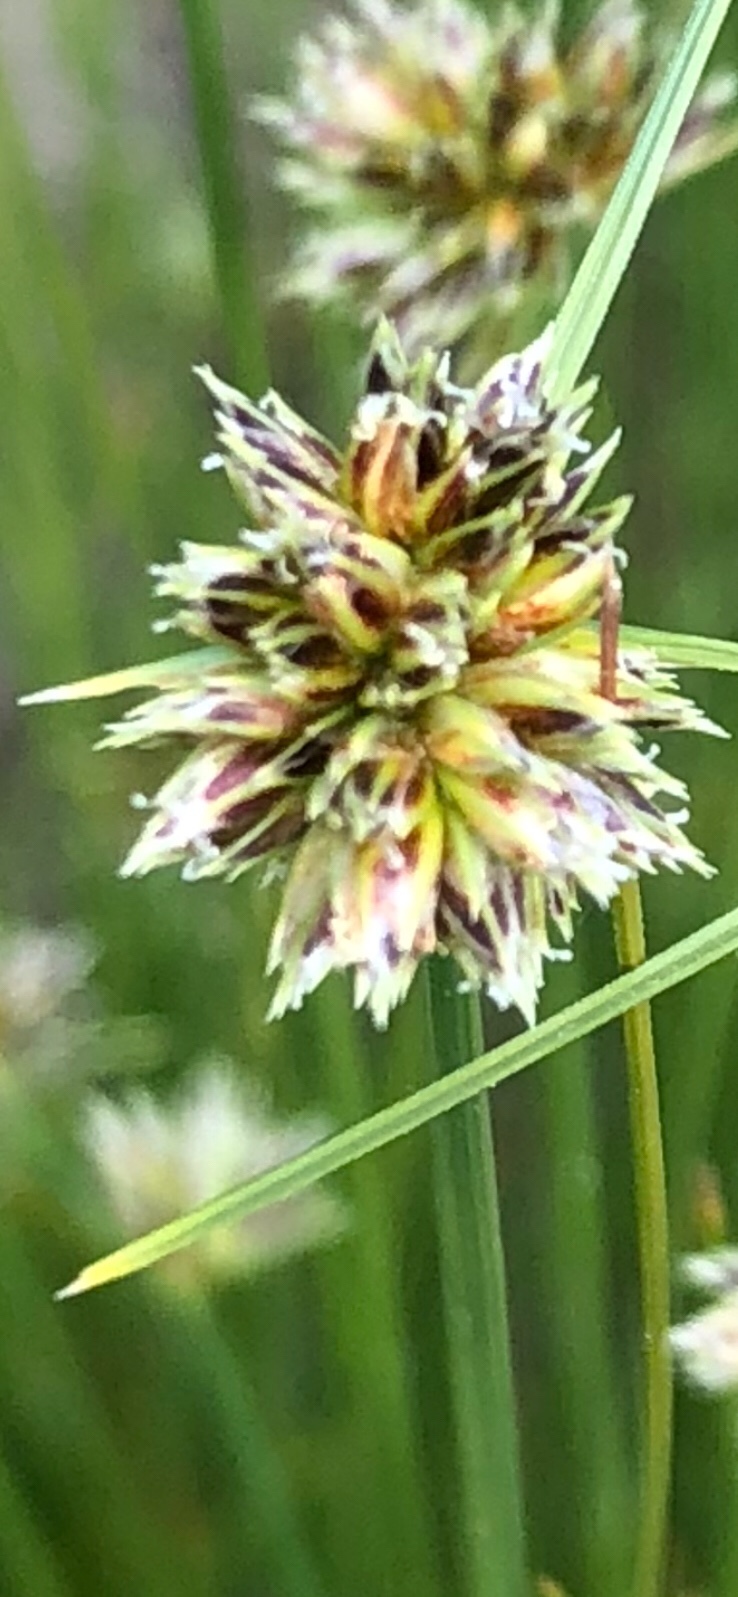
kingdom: Plantae
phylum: Tracheophyta
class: Liliopsida
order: Poales
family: Cyperaceae
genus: Ficinia
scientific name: Ficinia albicans
